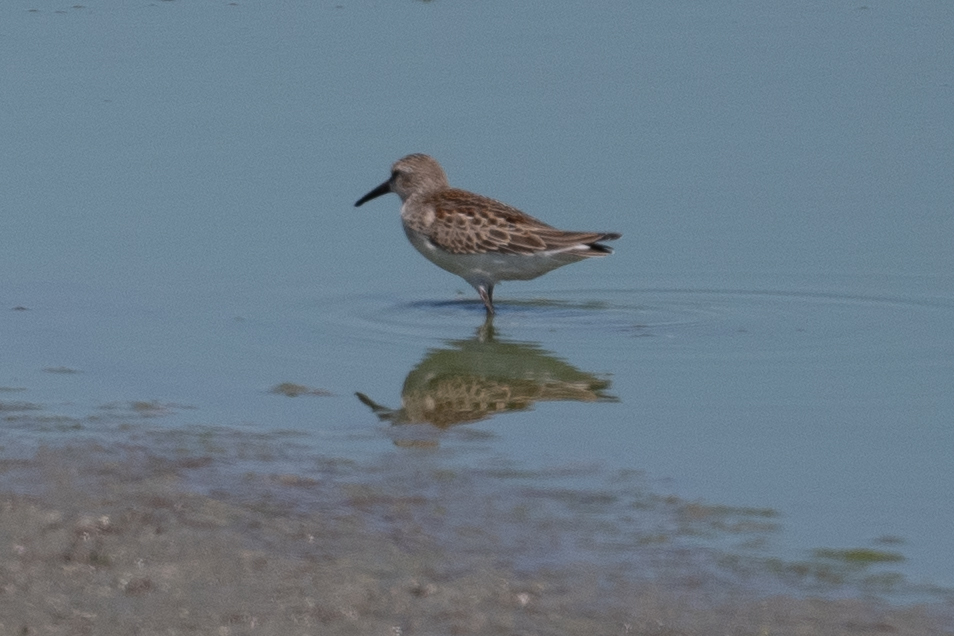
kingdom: Animalia
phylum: Chordata
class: Aves
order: Charadriiformes
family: Scolopacidae
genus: Calidris
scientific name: Calidris mauri
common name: Western sandpiper
